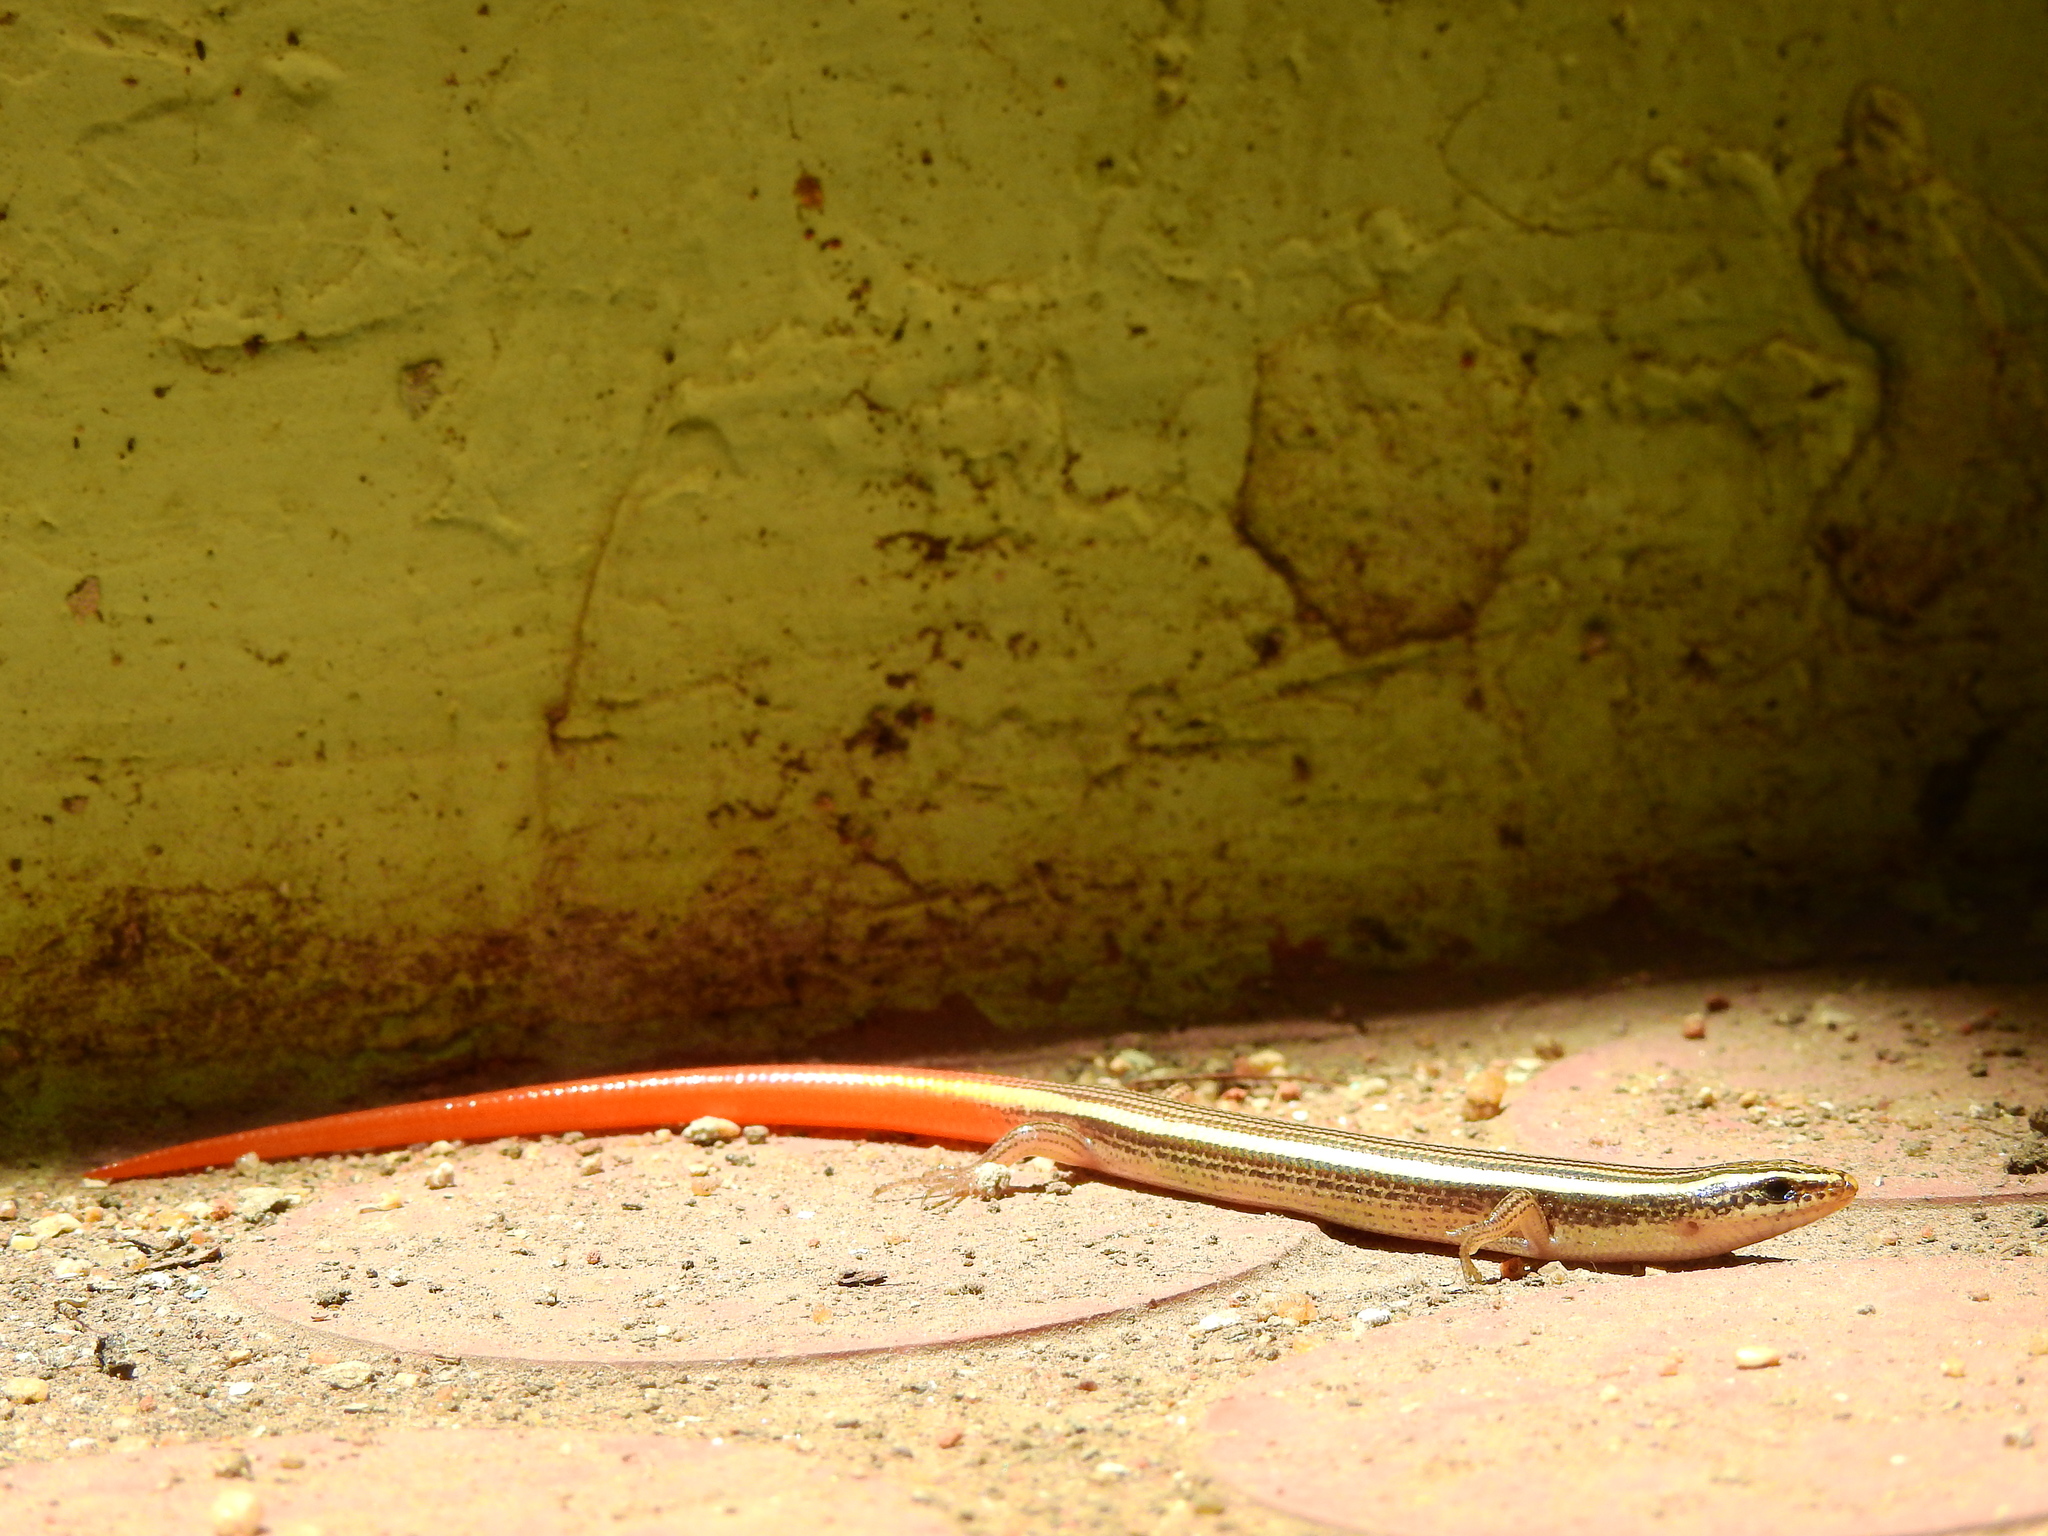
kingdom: Animalia
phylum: Chordata
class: Squamata
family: Scincidae
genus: Riopa
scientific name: Riopa punctata
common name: Common dotted garden skink
